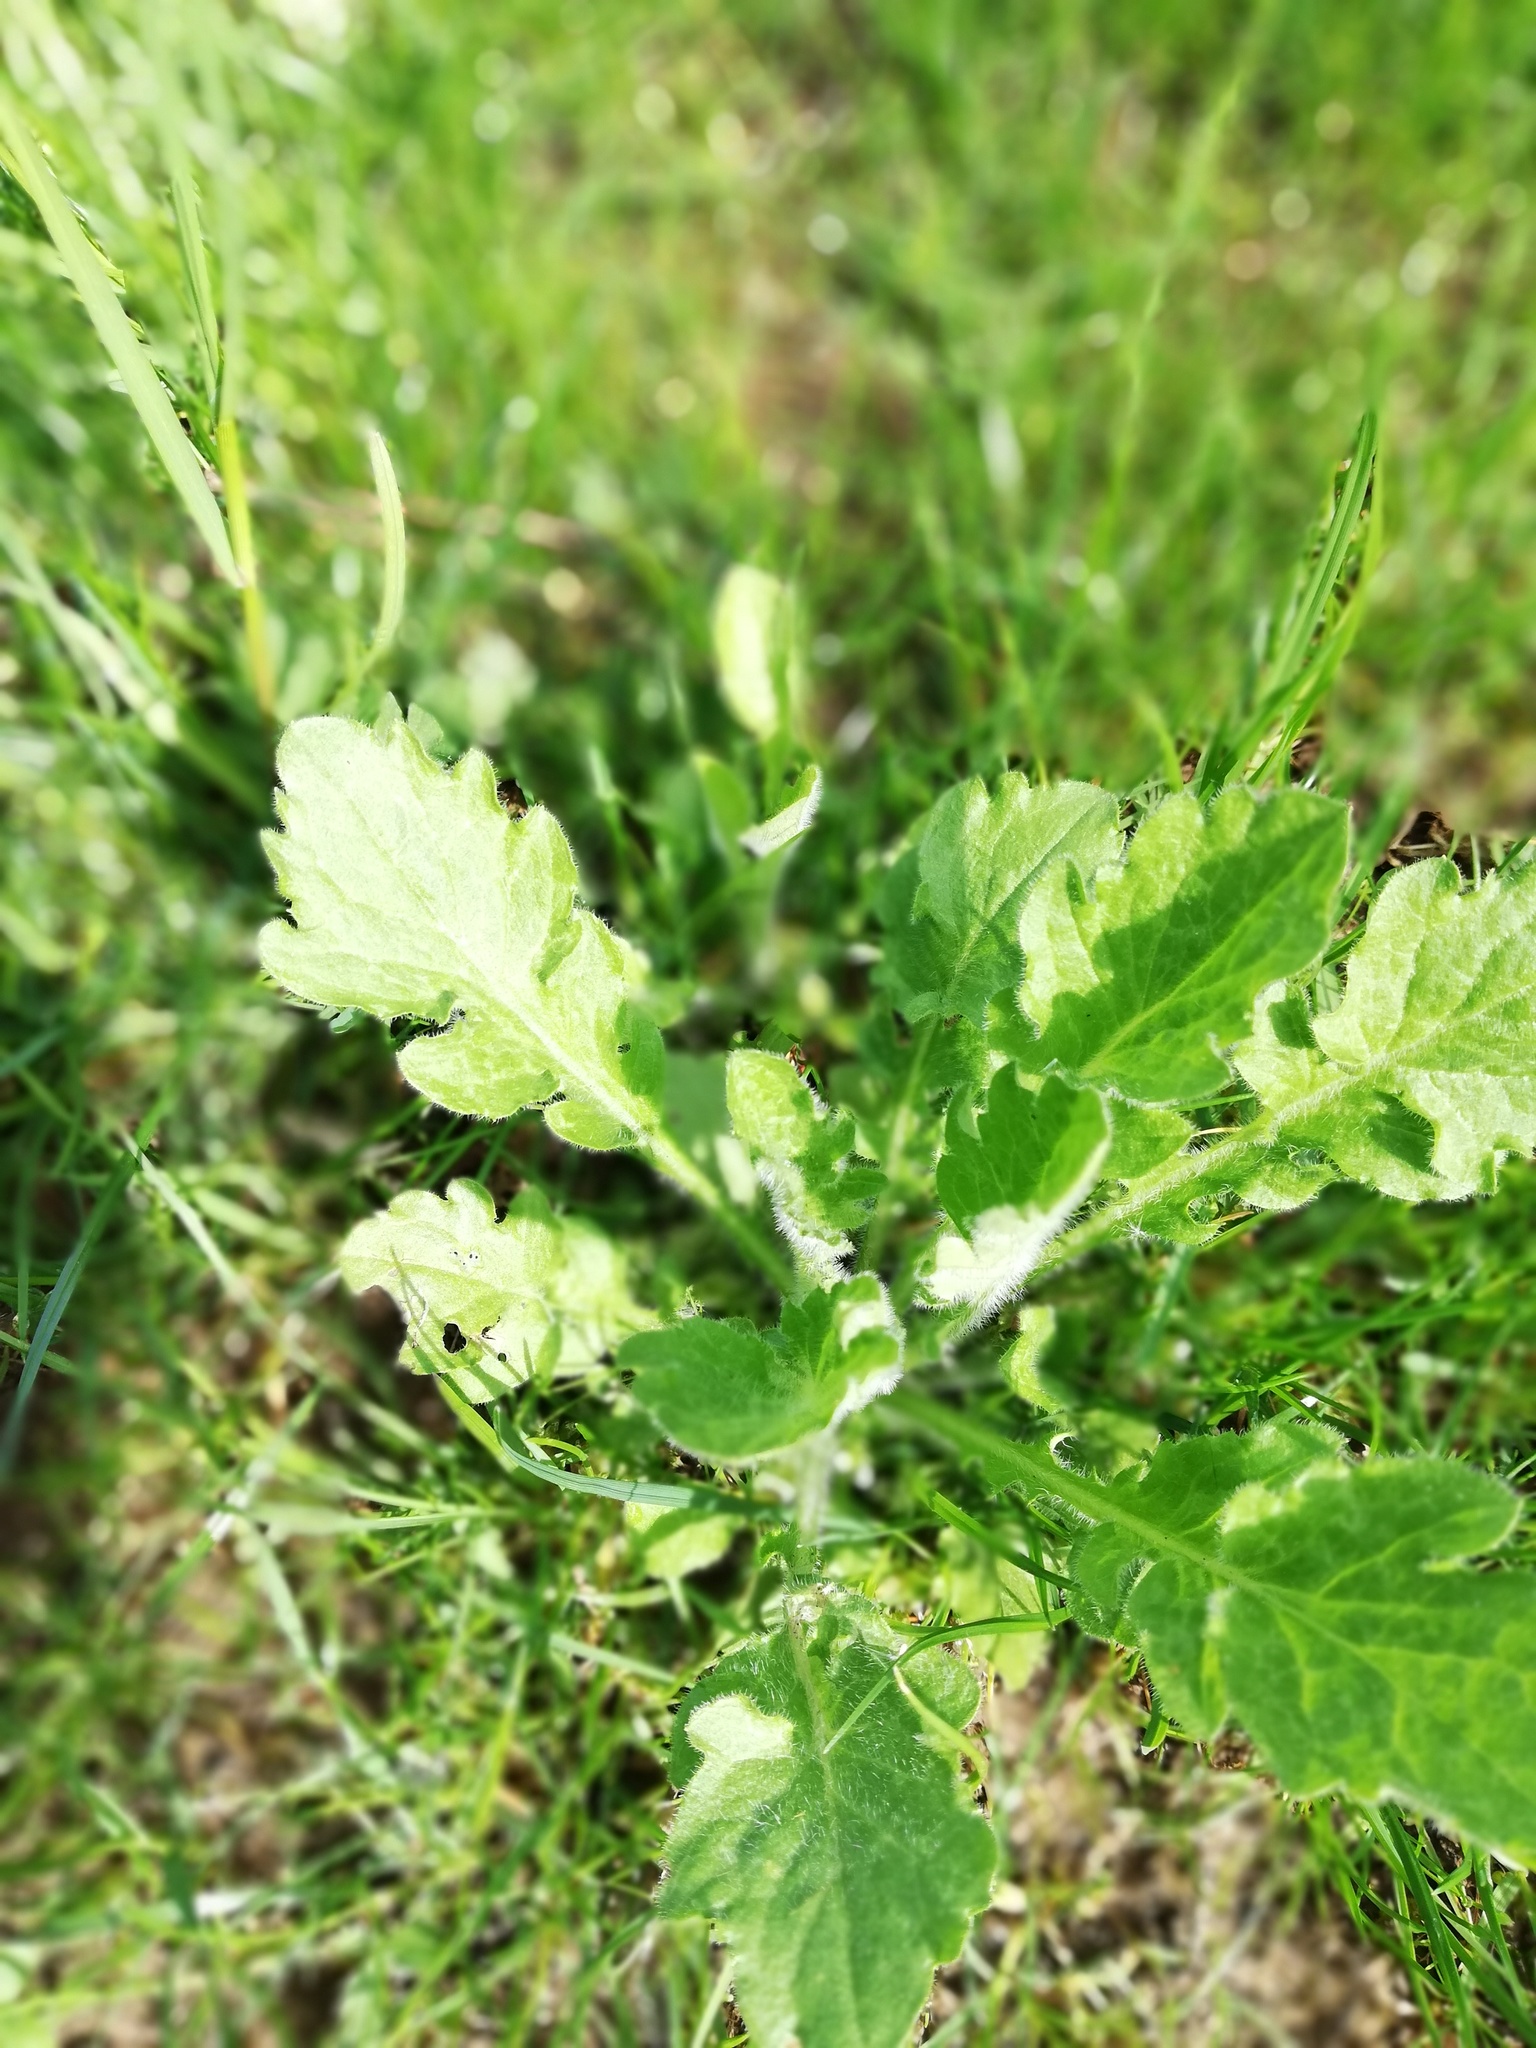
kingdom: Plantae
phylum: Tracheophyta
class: Magnoliopsida
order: Asterales
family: Asteraceae
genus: Erigeron
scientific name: Erigeron annuus
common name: Tall fleabane
